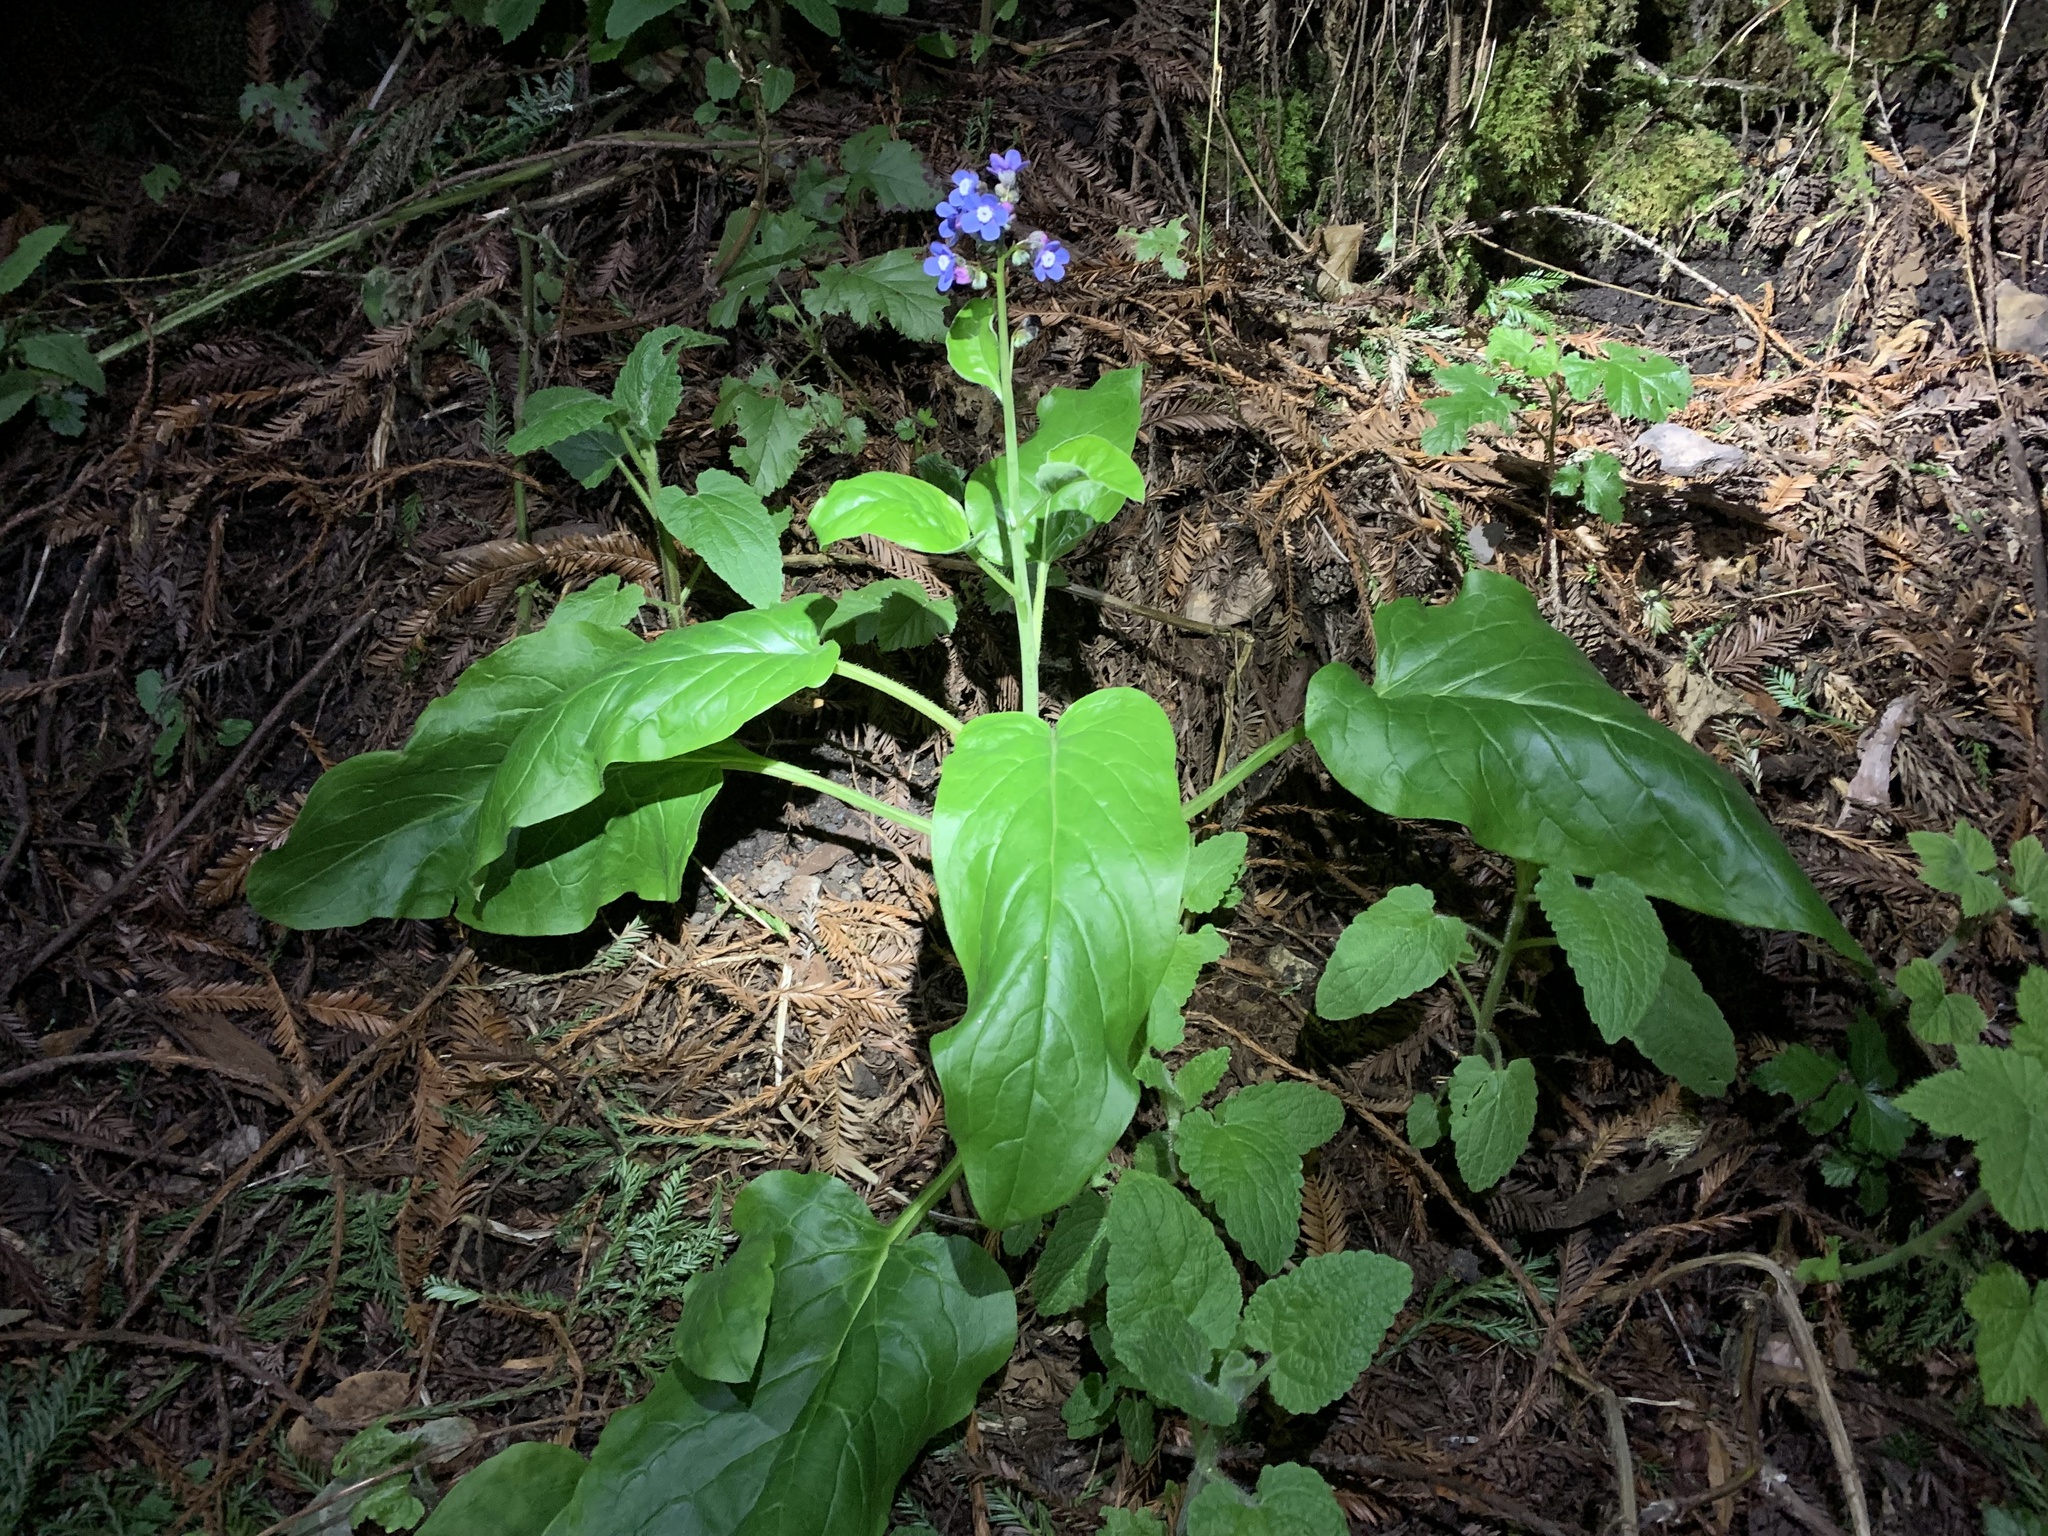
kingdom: Plantae
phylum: Tracheophyta
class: Magnoliopsida
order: Boraginales
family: Boraginaceae
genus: Adelinia
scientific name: Adelinia grande
